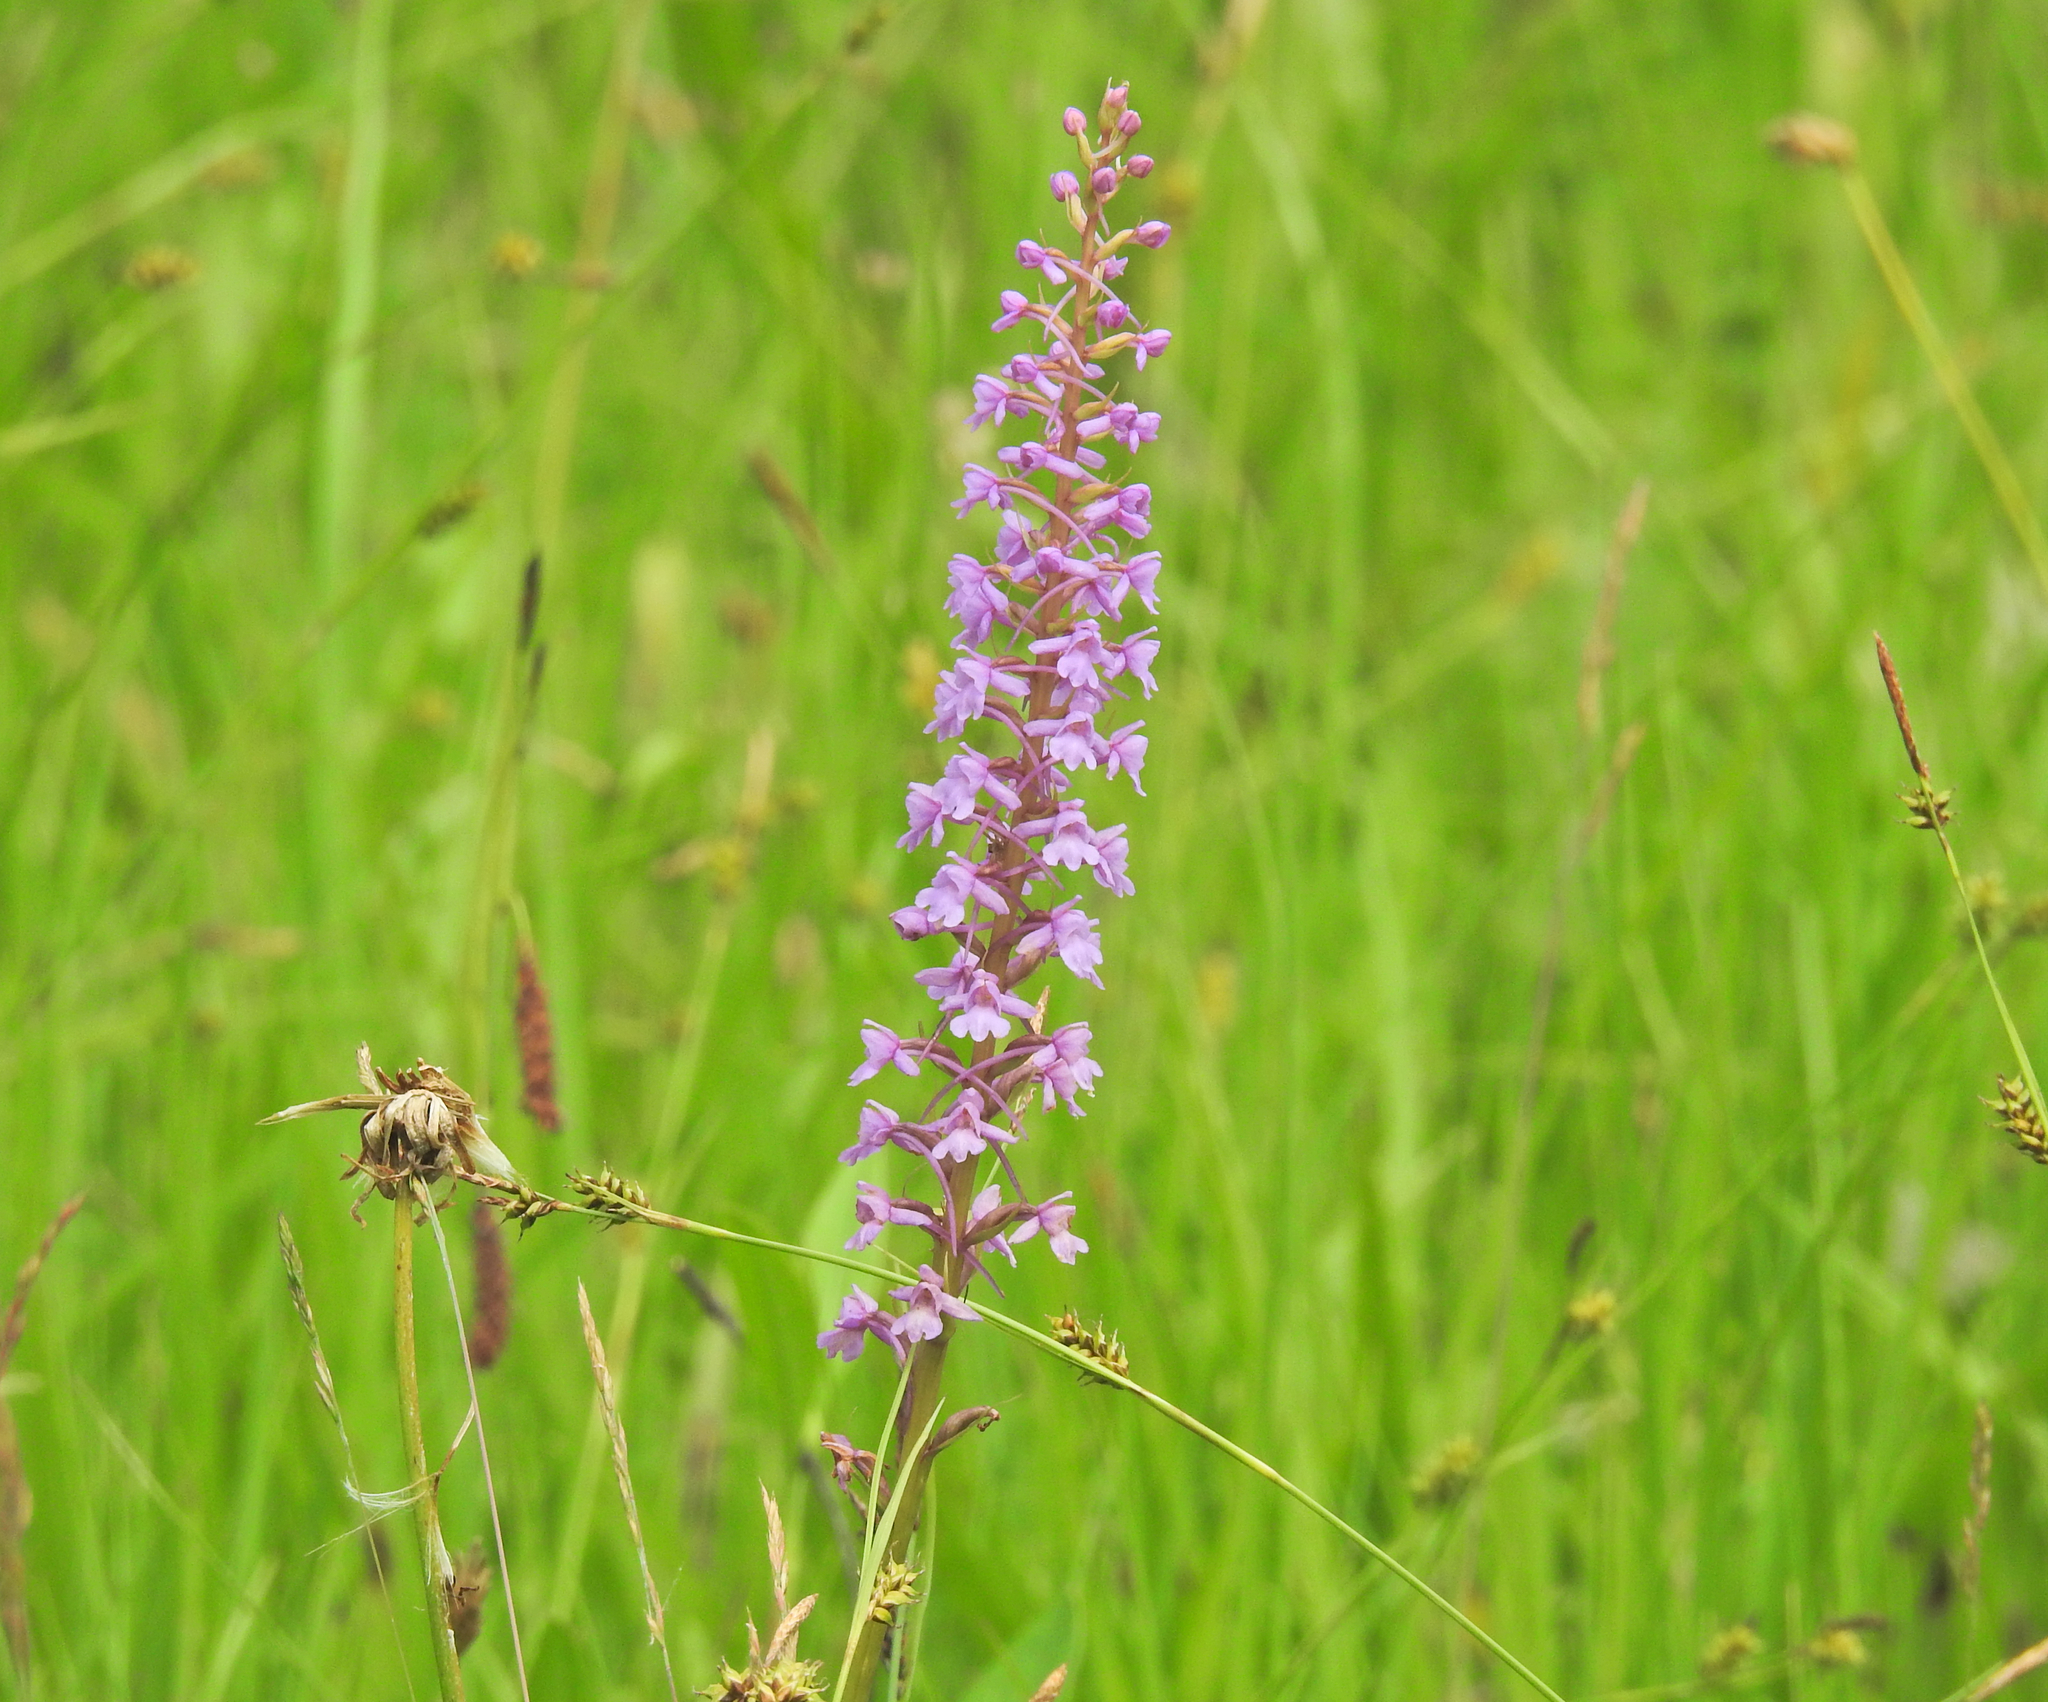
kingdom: Plantae
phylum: Tracheophyta
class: Liliopsida
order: Asparagales
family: Orchidaceae
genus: Gymnadenia
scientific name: Gymnadenia conopsea
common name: Fragrant orchid
